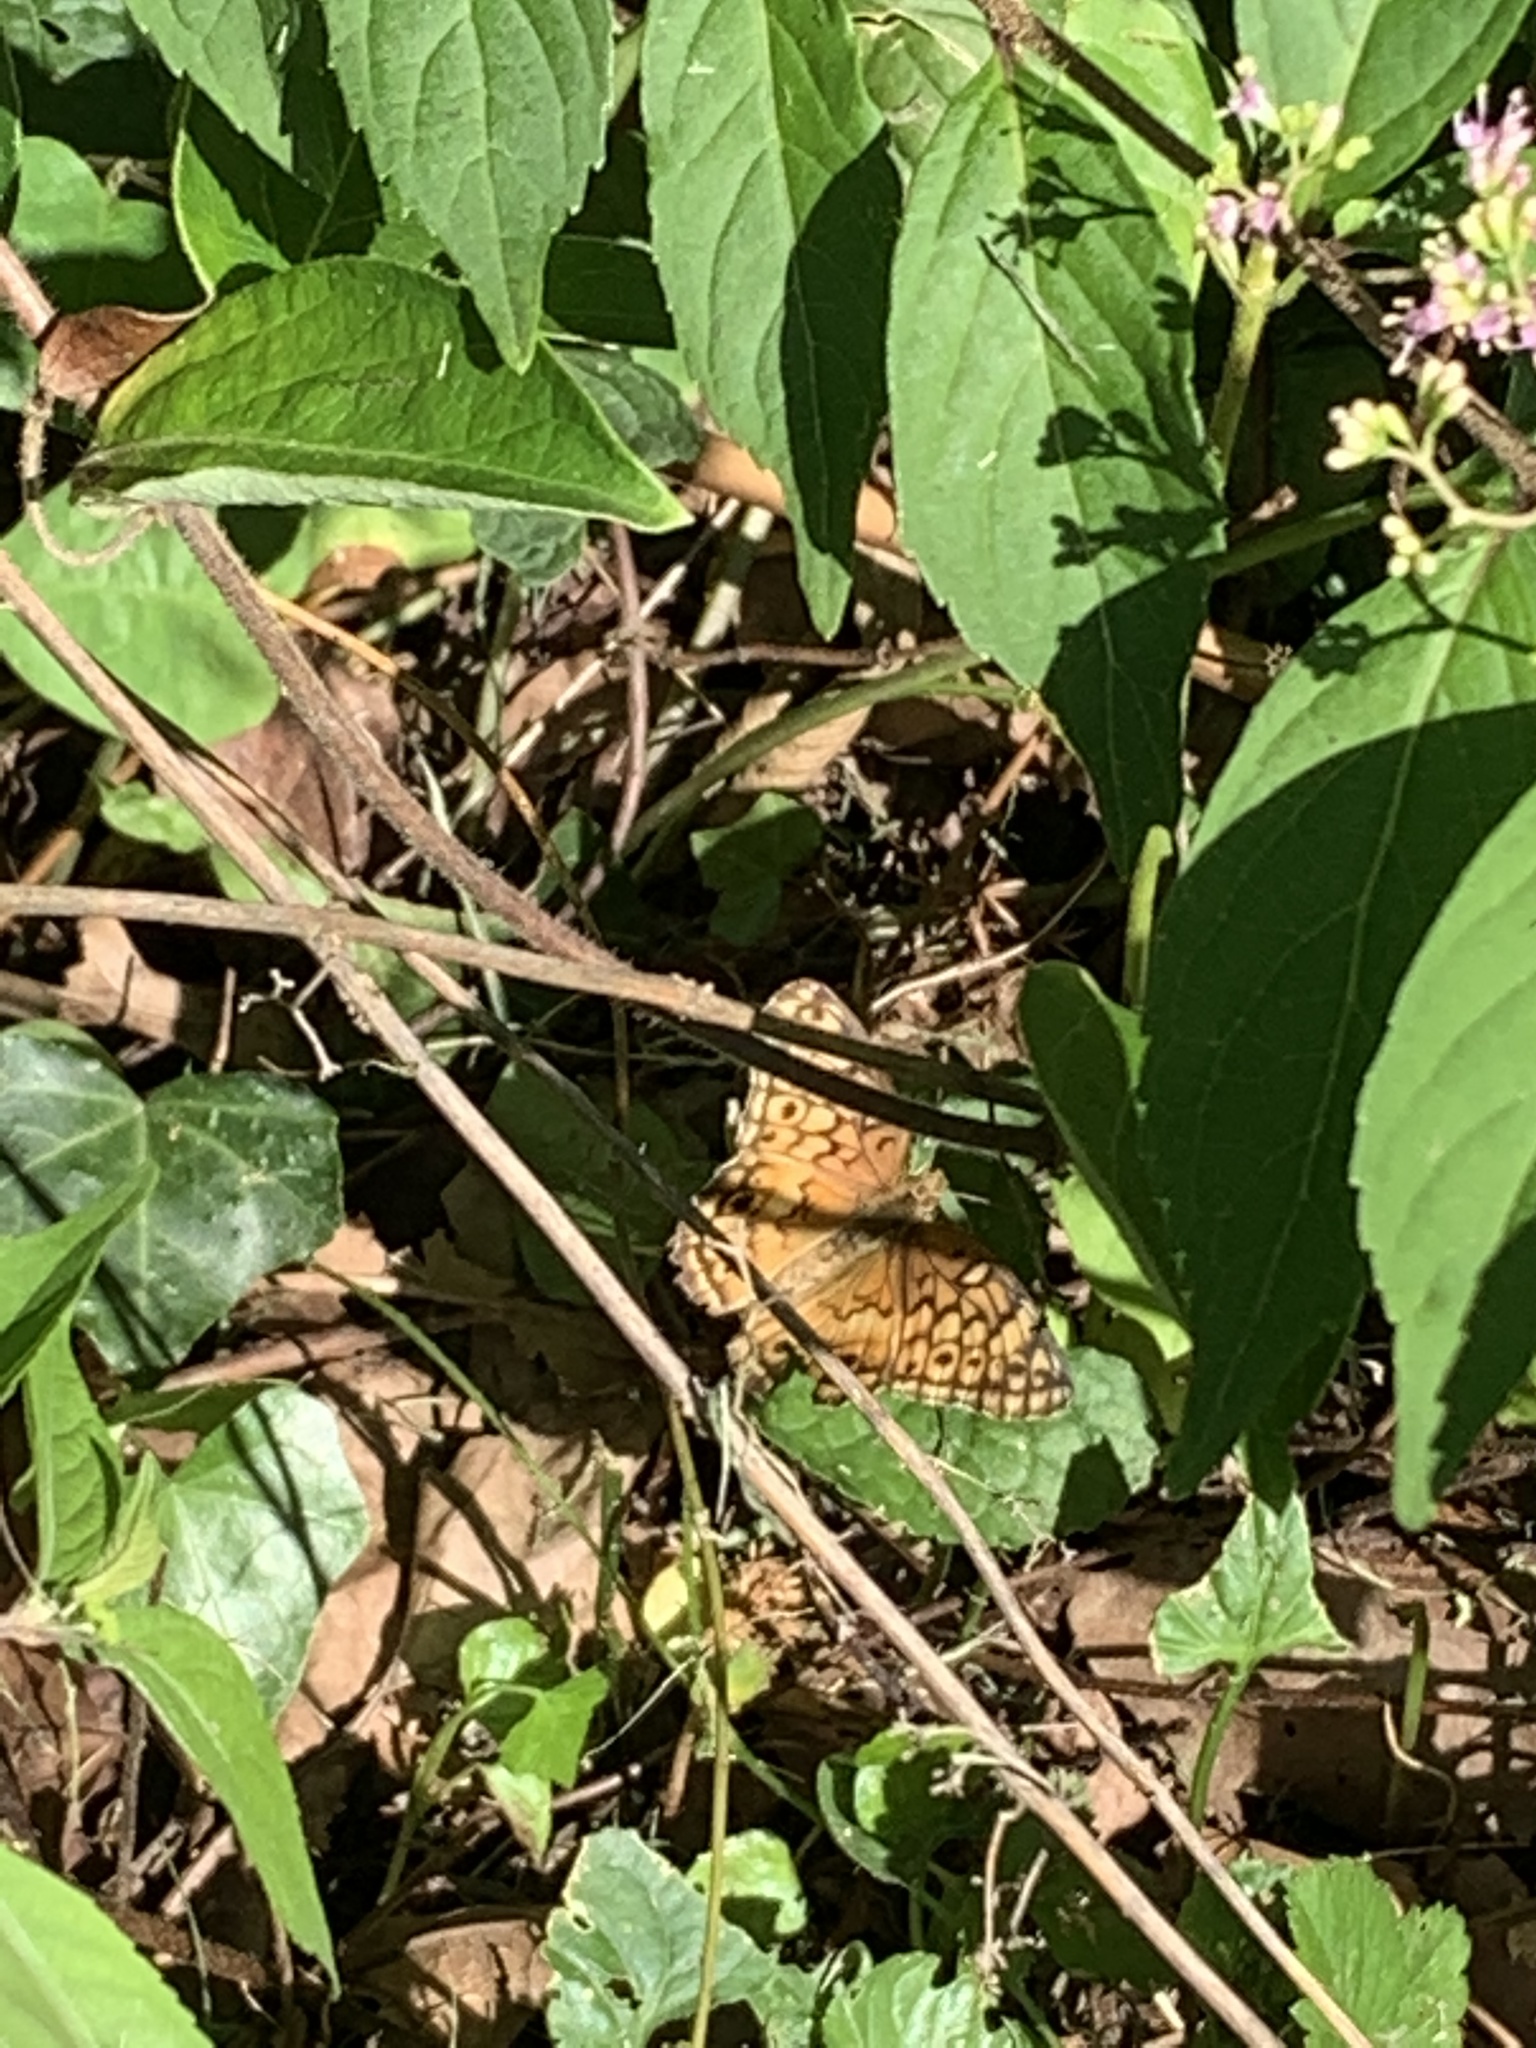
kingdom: Animalia
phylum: Arthropoda
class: Insecta
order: Lepidoptera
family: Nymphalidae
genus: Euptoieta
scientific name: Euptoieta claudia
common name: Variegated fritillary
